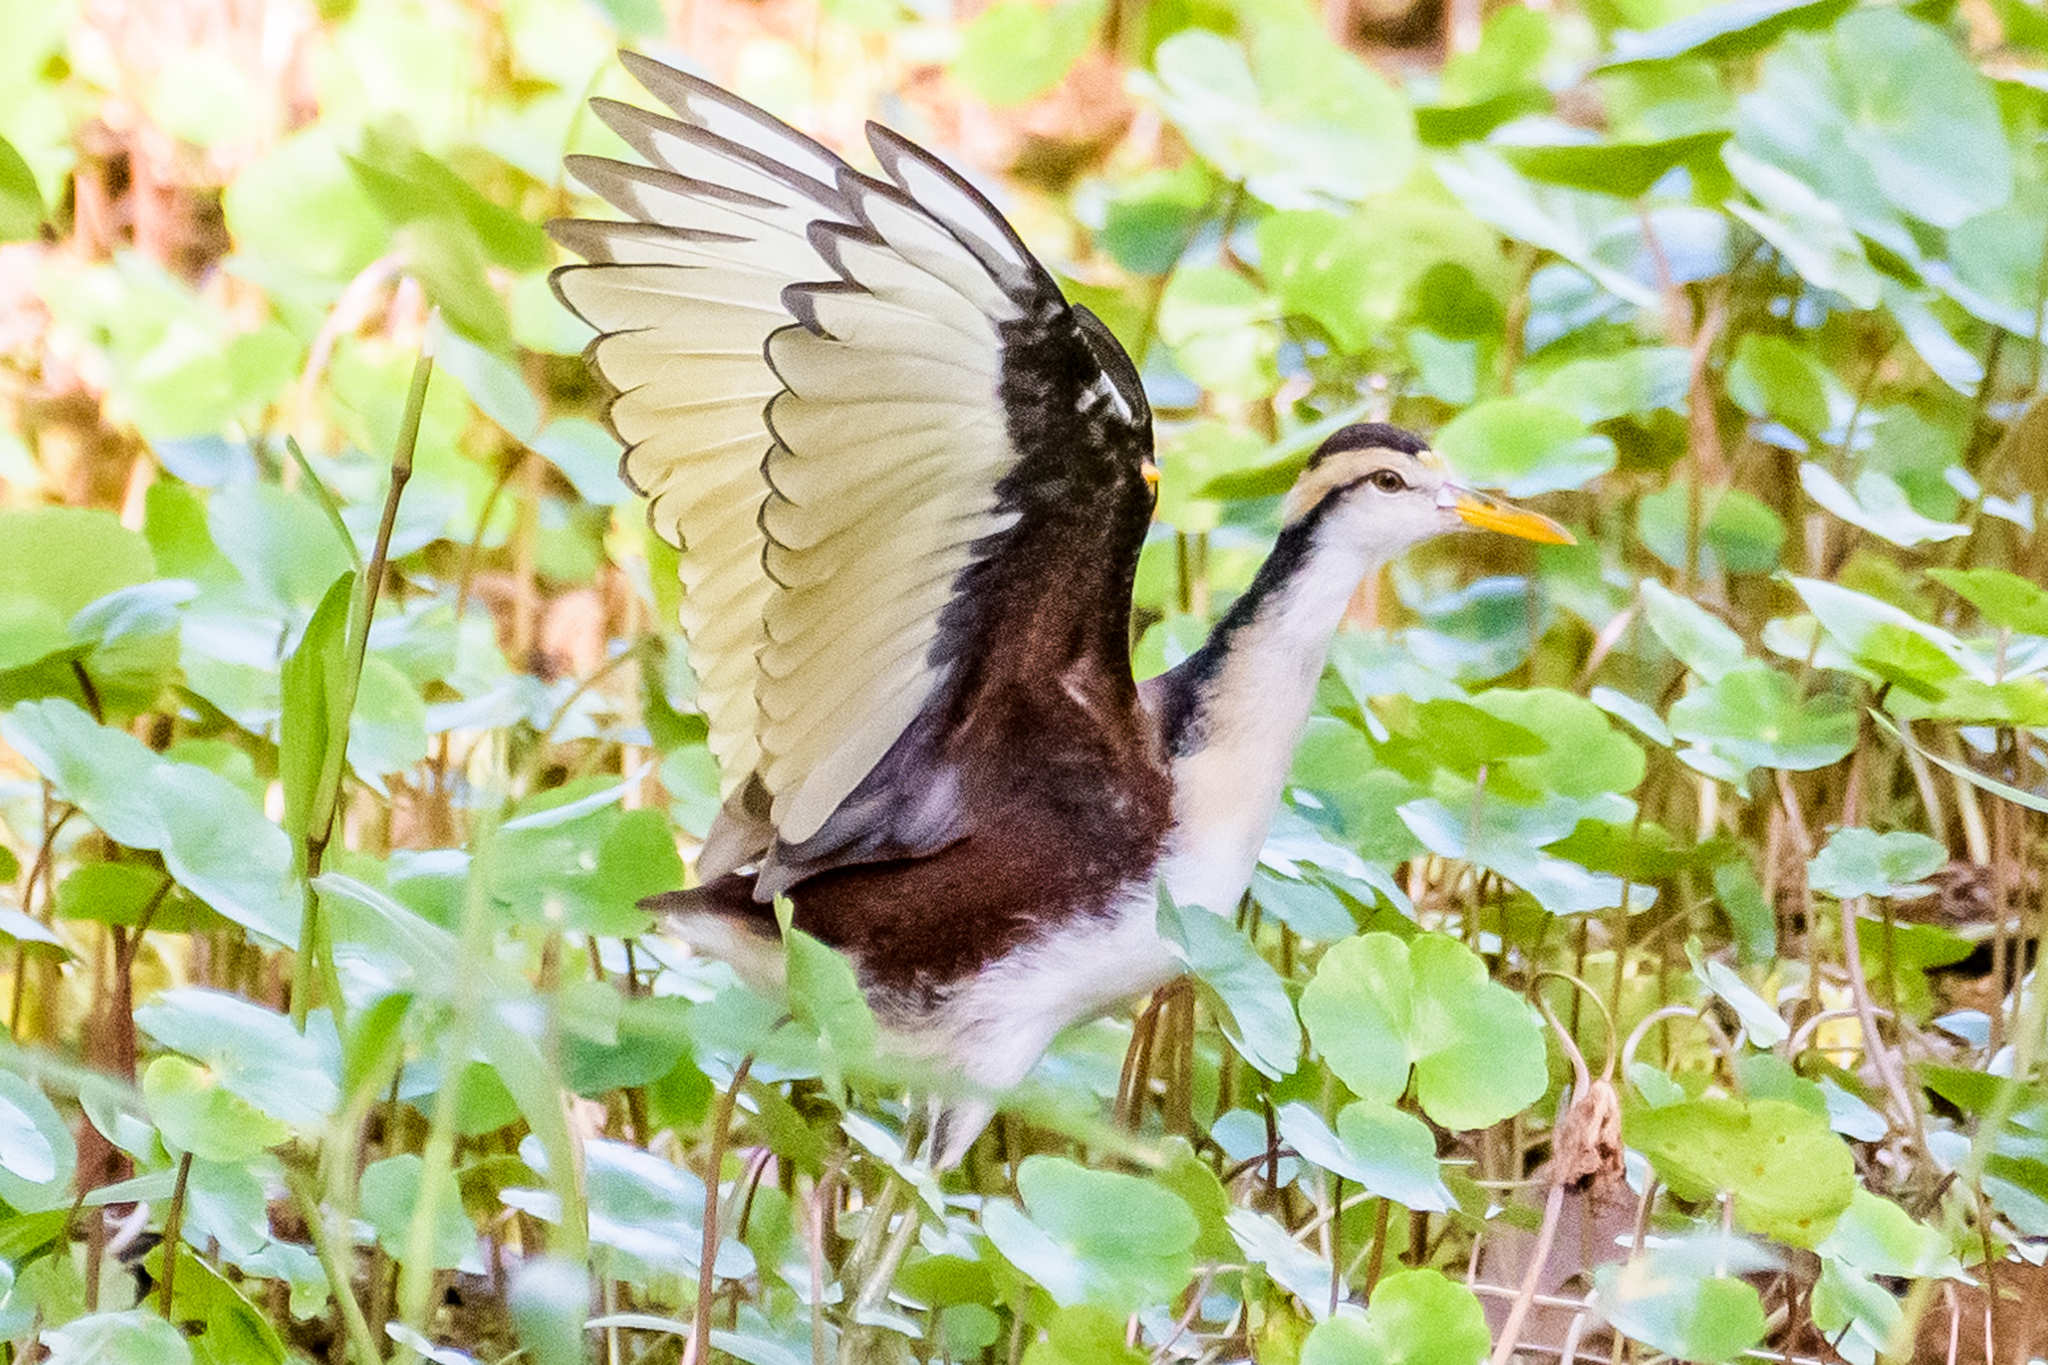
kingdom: Animalia
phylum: Chordata
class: Aves
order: Charadriiformes
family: Jacanidae
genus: Jacana
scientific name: Jacana spinosa
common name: Northern jacana
